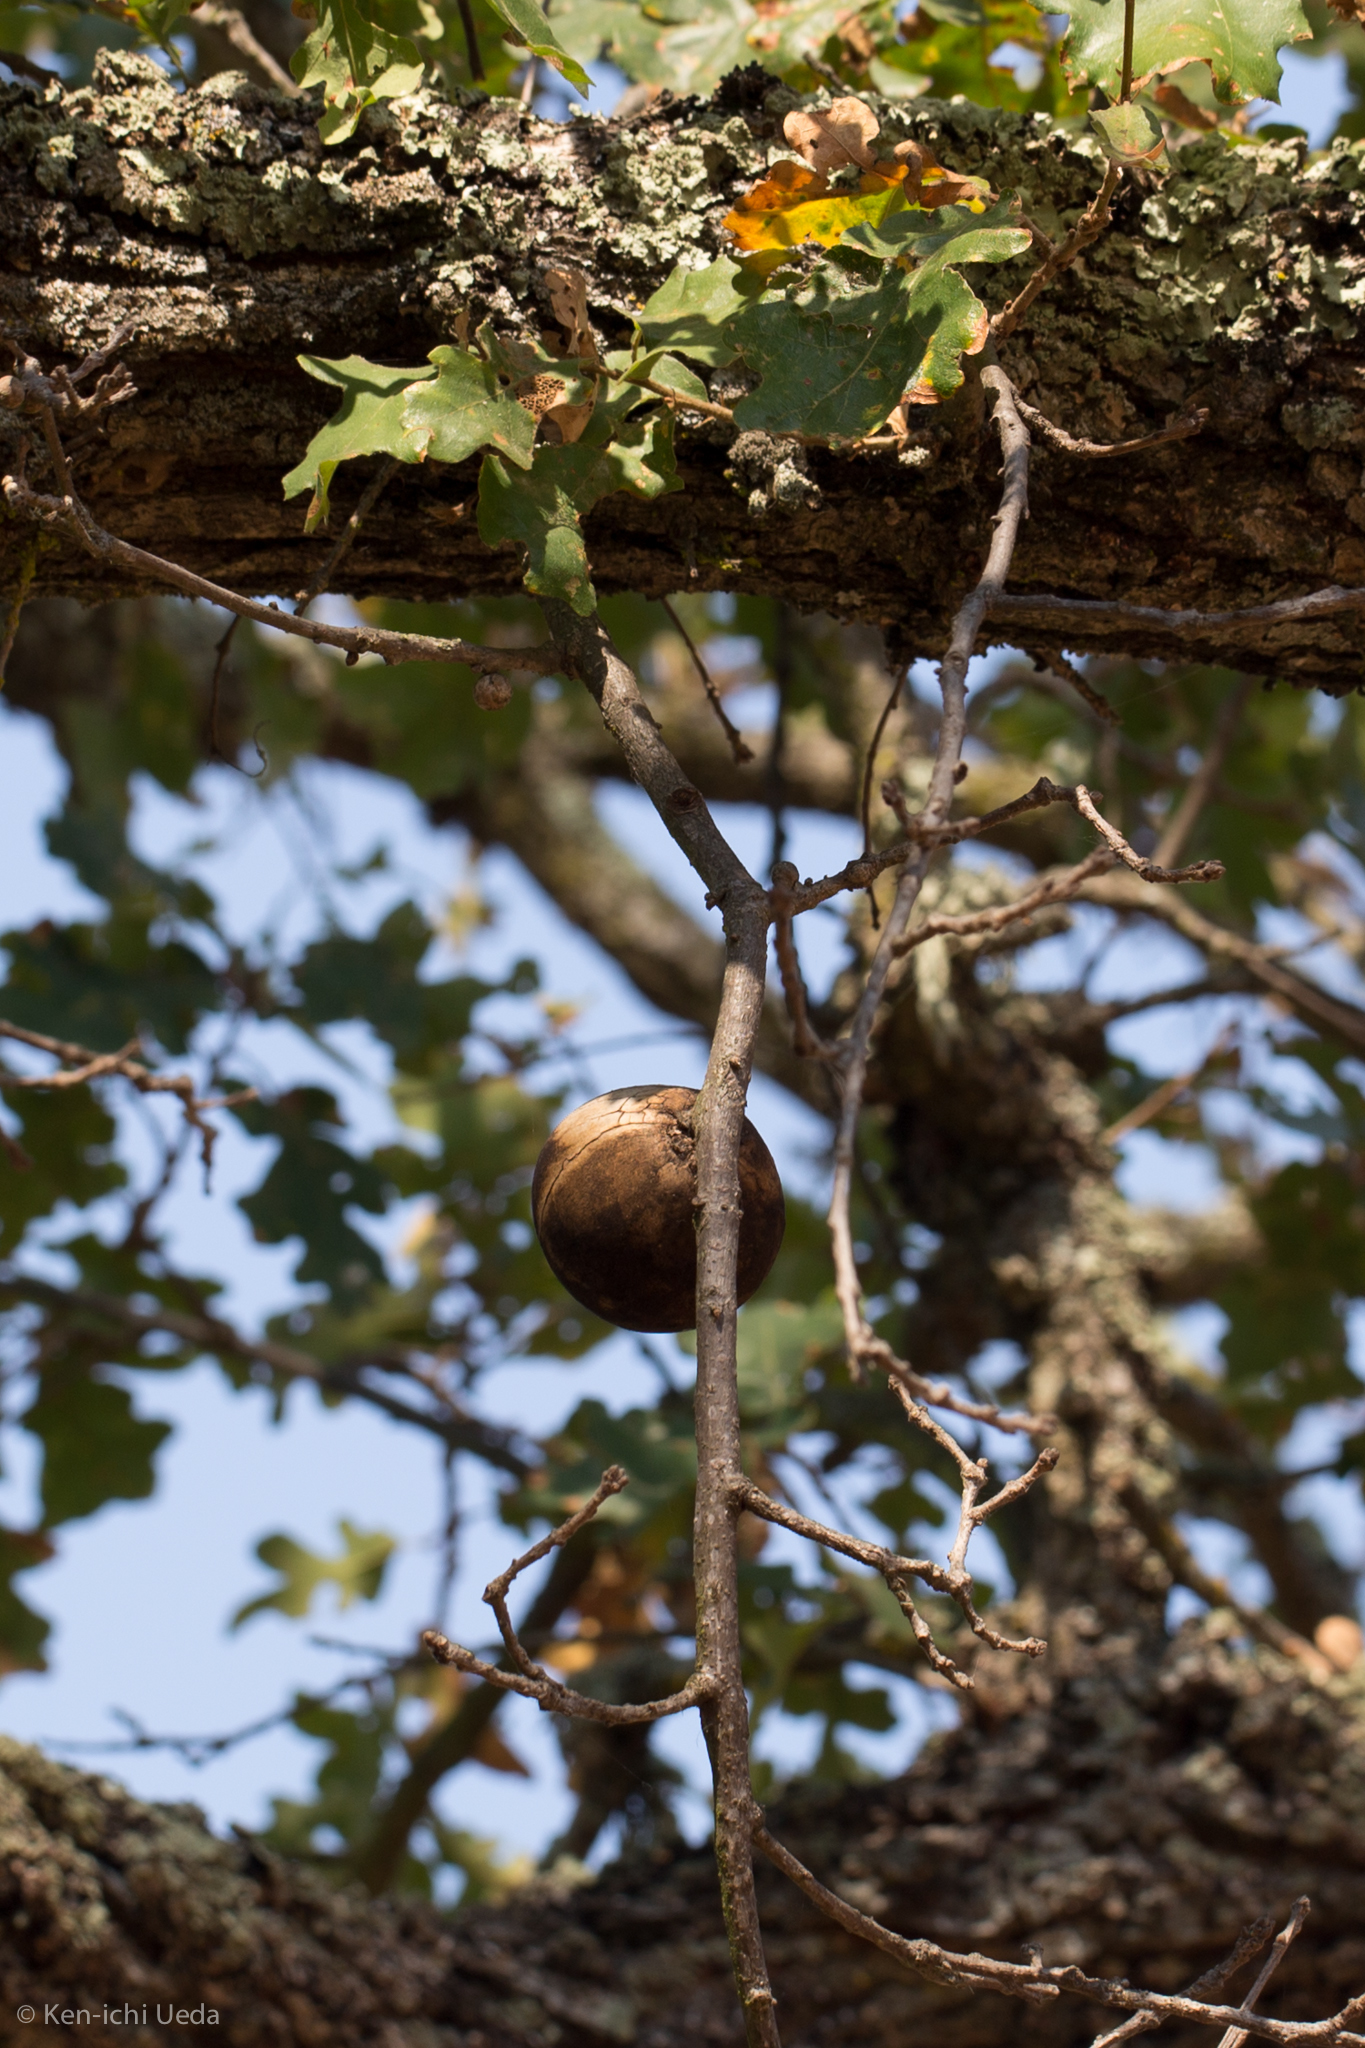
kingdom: Animalia
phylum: Arthropoda
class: Insecta
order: Hymenoptera
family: Cynipidae
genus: Andricus
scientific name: Andricus quercuscalifornicus
